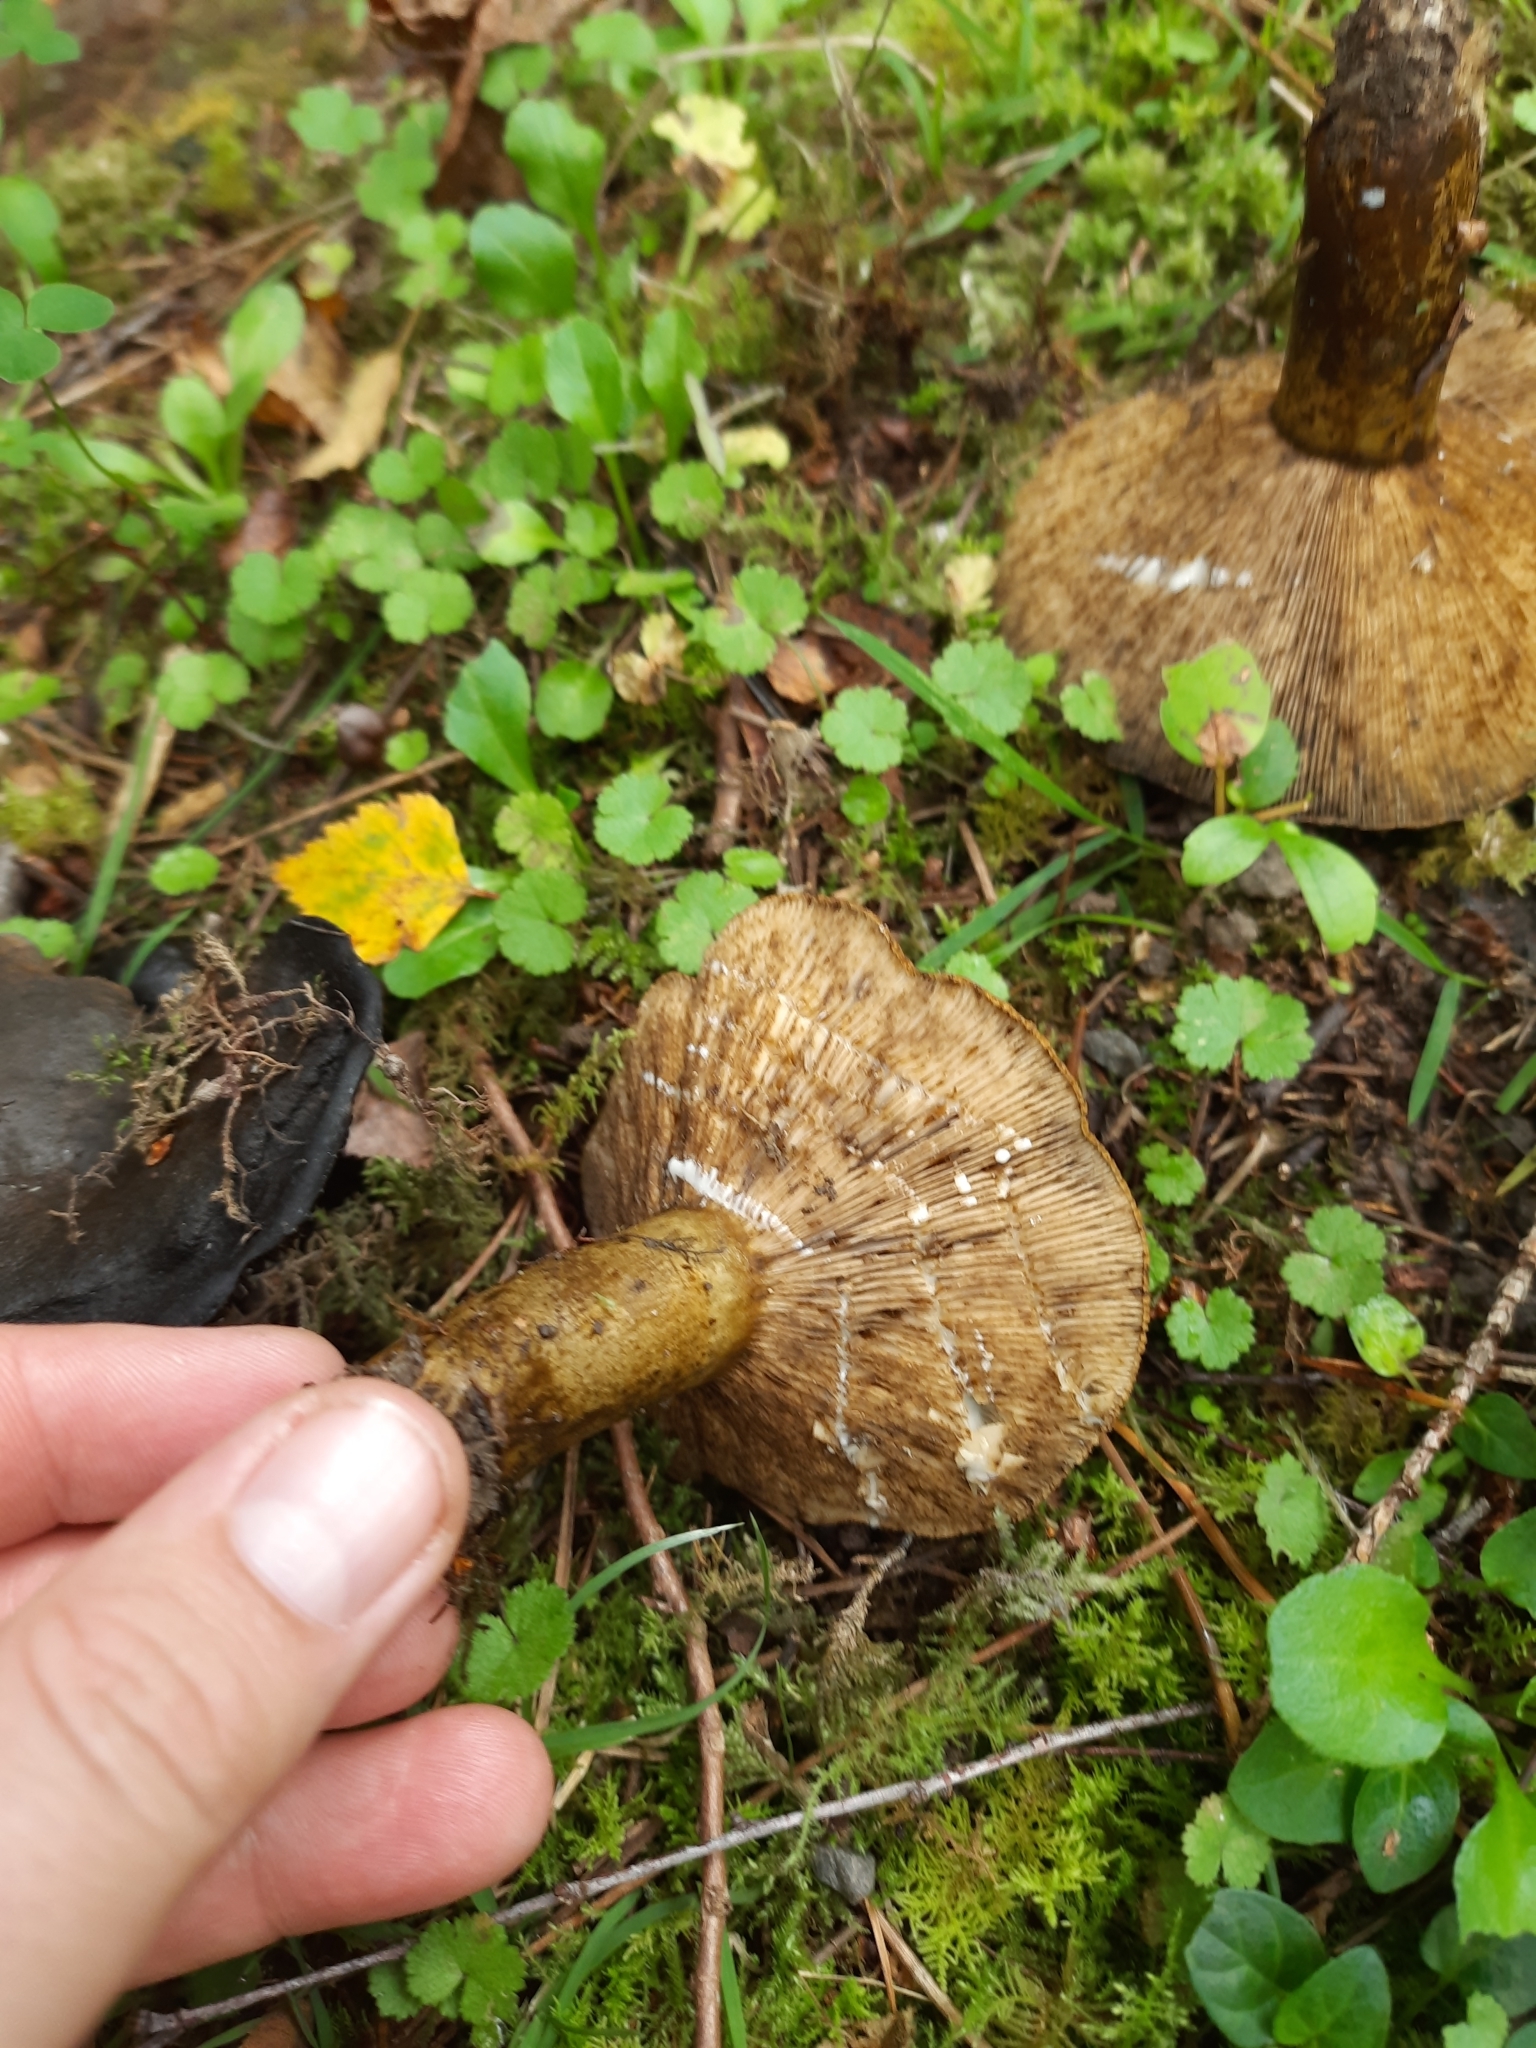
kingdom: Fungi
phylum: Basidiomycota
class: Agaricomycetes
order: Russulales
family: Russulaceae
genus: Lactarius
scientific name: Lactarius turpis
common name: Ugly milk-cap
